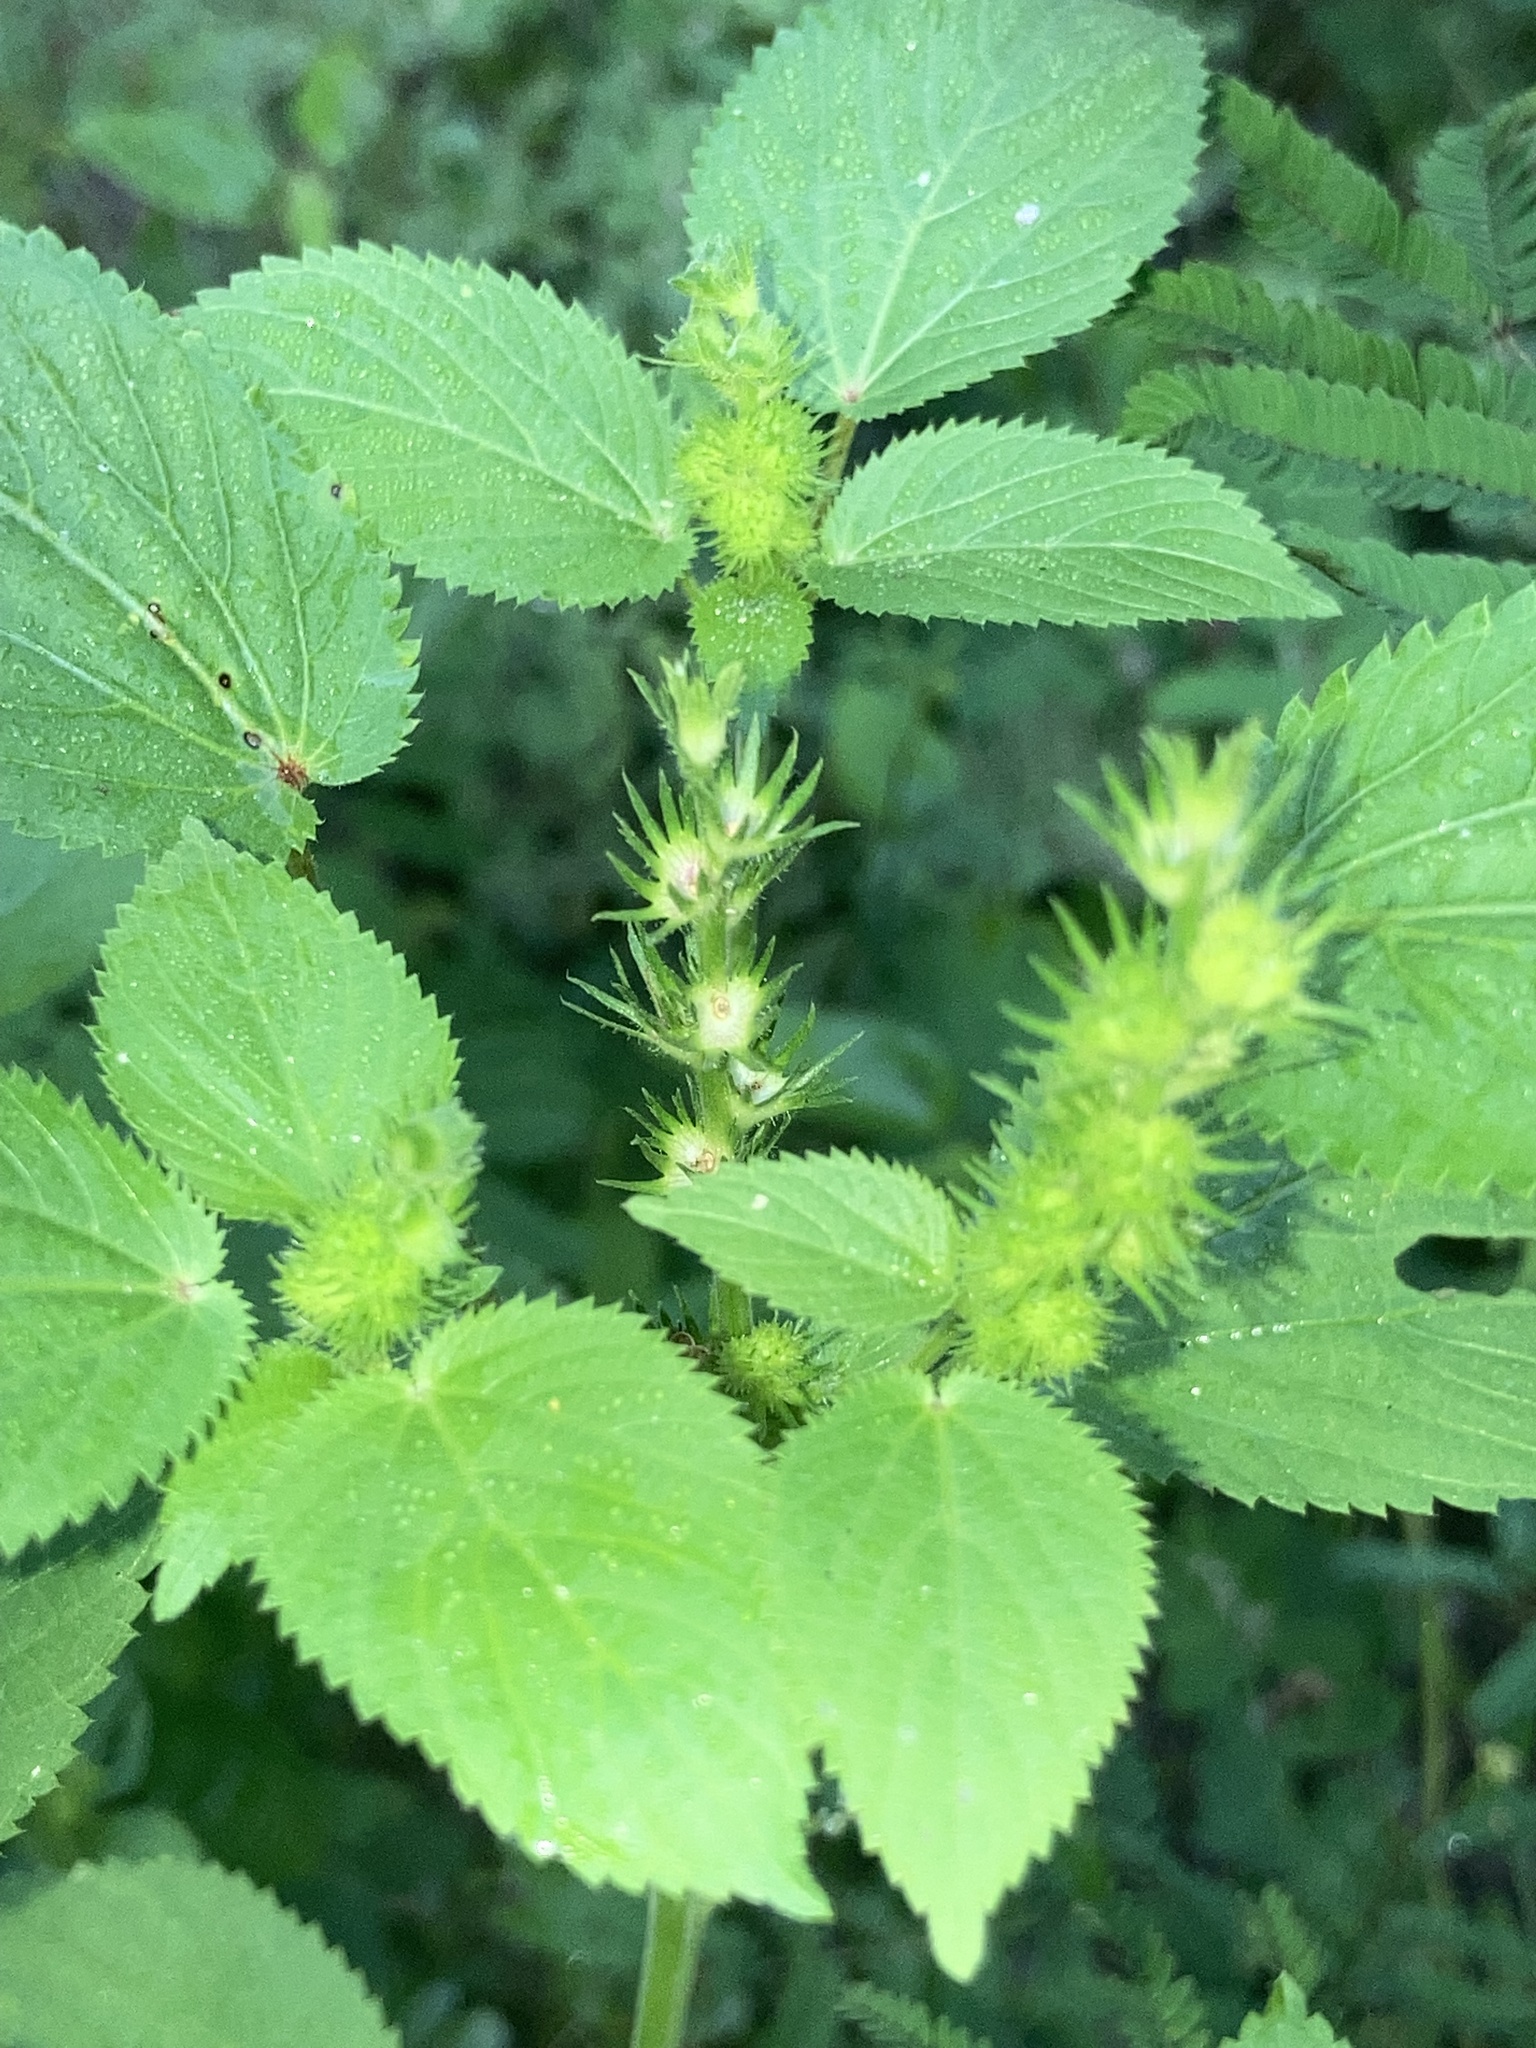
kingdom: Plantae
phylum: Tracheophyta
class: Magnoliopsida
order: Malpighiales
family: Euphorbiaceae
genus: Acalypha
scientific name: Acalypha ostryifolia
